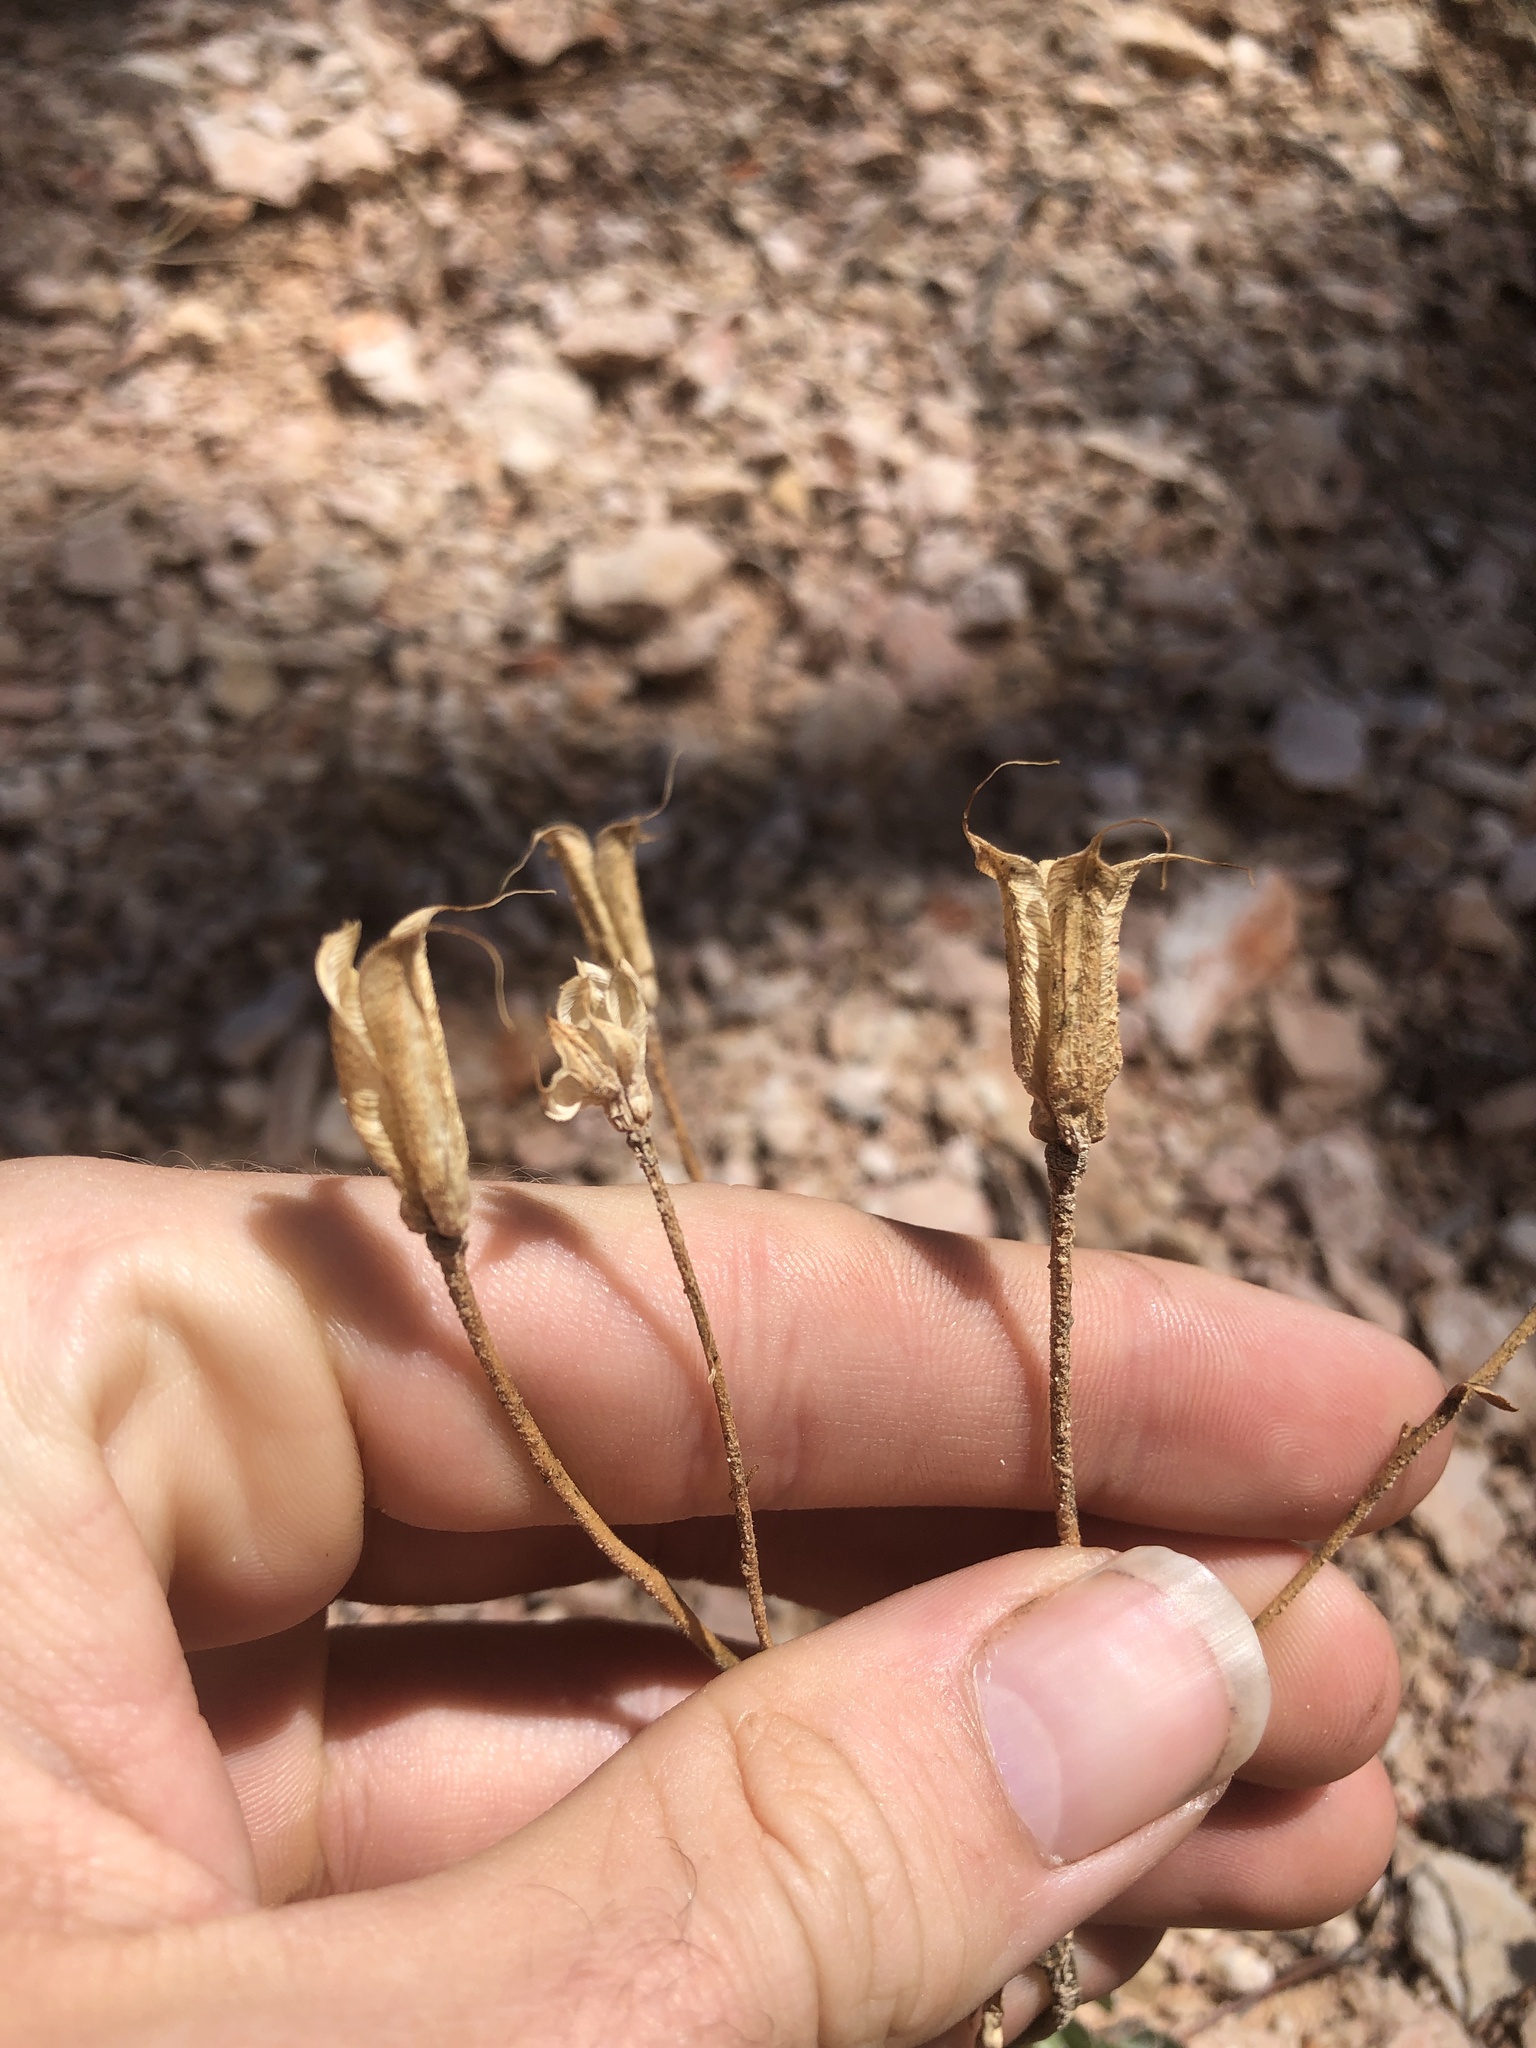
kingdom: Plantae
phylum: Tracheophyta
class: Magnoliopsida
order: Ranunculales
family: Ranunculaceae
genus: Aquilegia
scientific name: Aquilegia scopulorum
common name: Rock columbine
